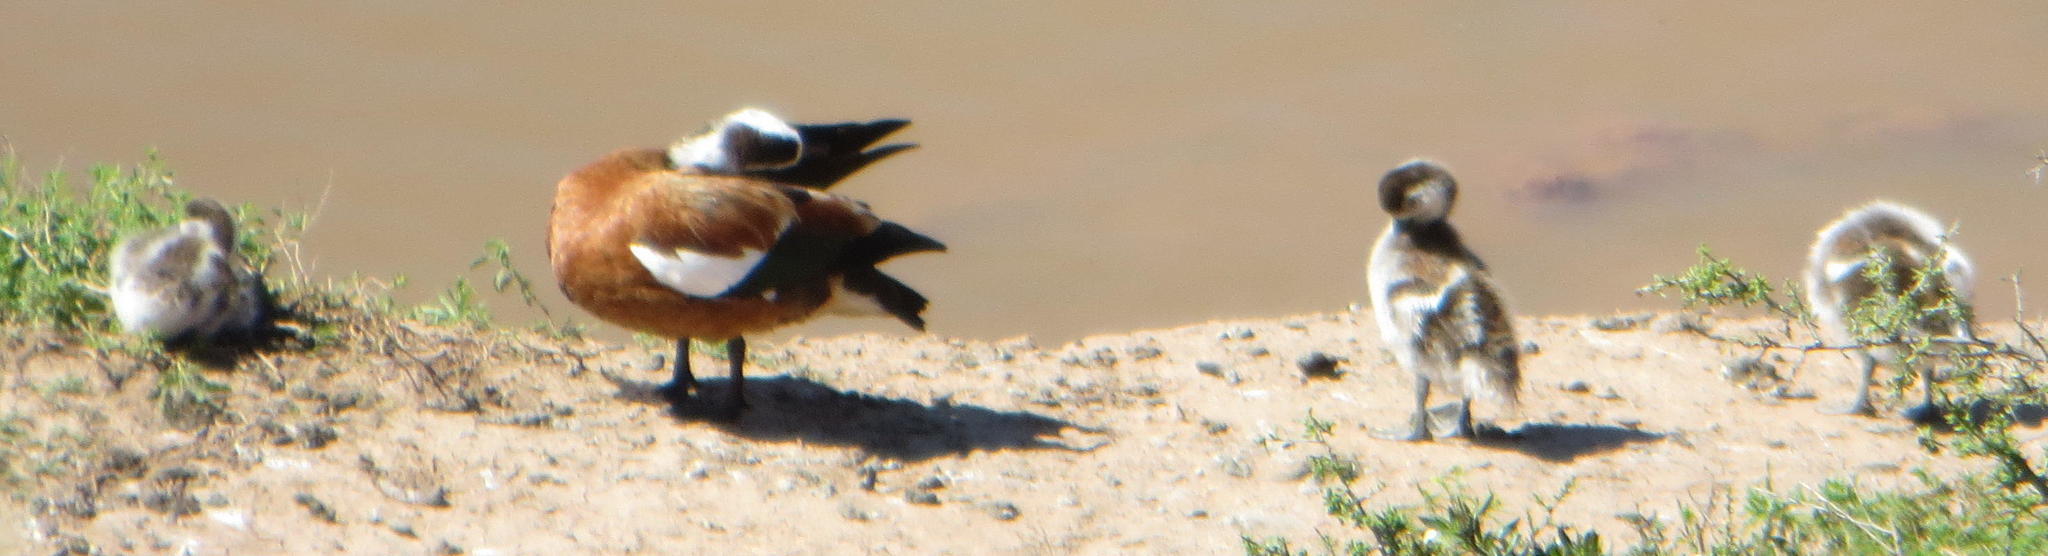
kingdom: Animalia
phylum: Chordata
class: Aves
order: Anseriformes
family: Anatidae
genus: Tadorna
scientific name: Tadorna cana
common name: South african shelduck
